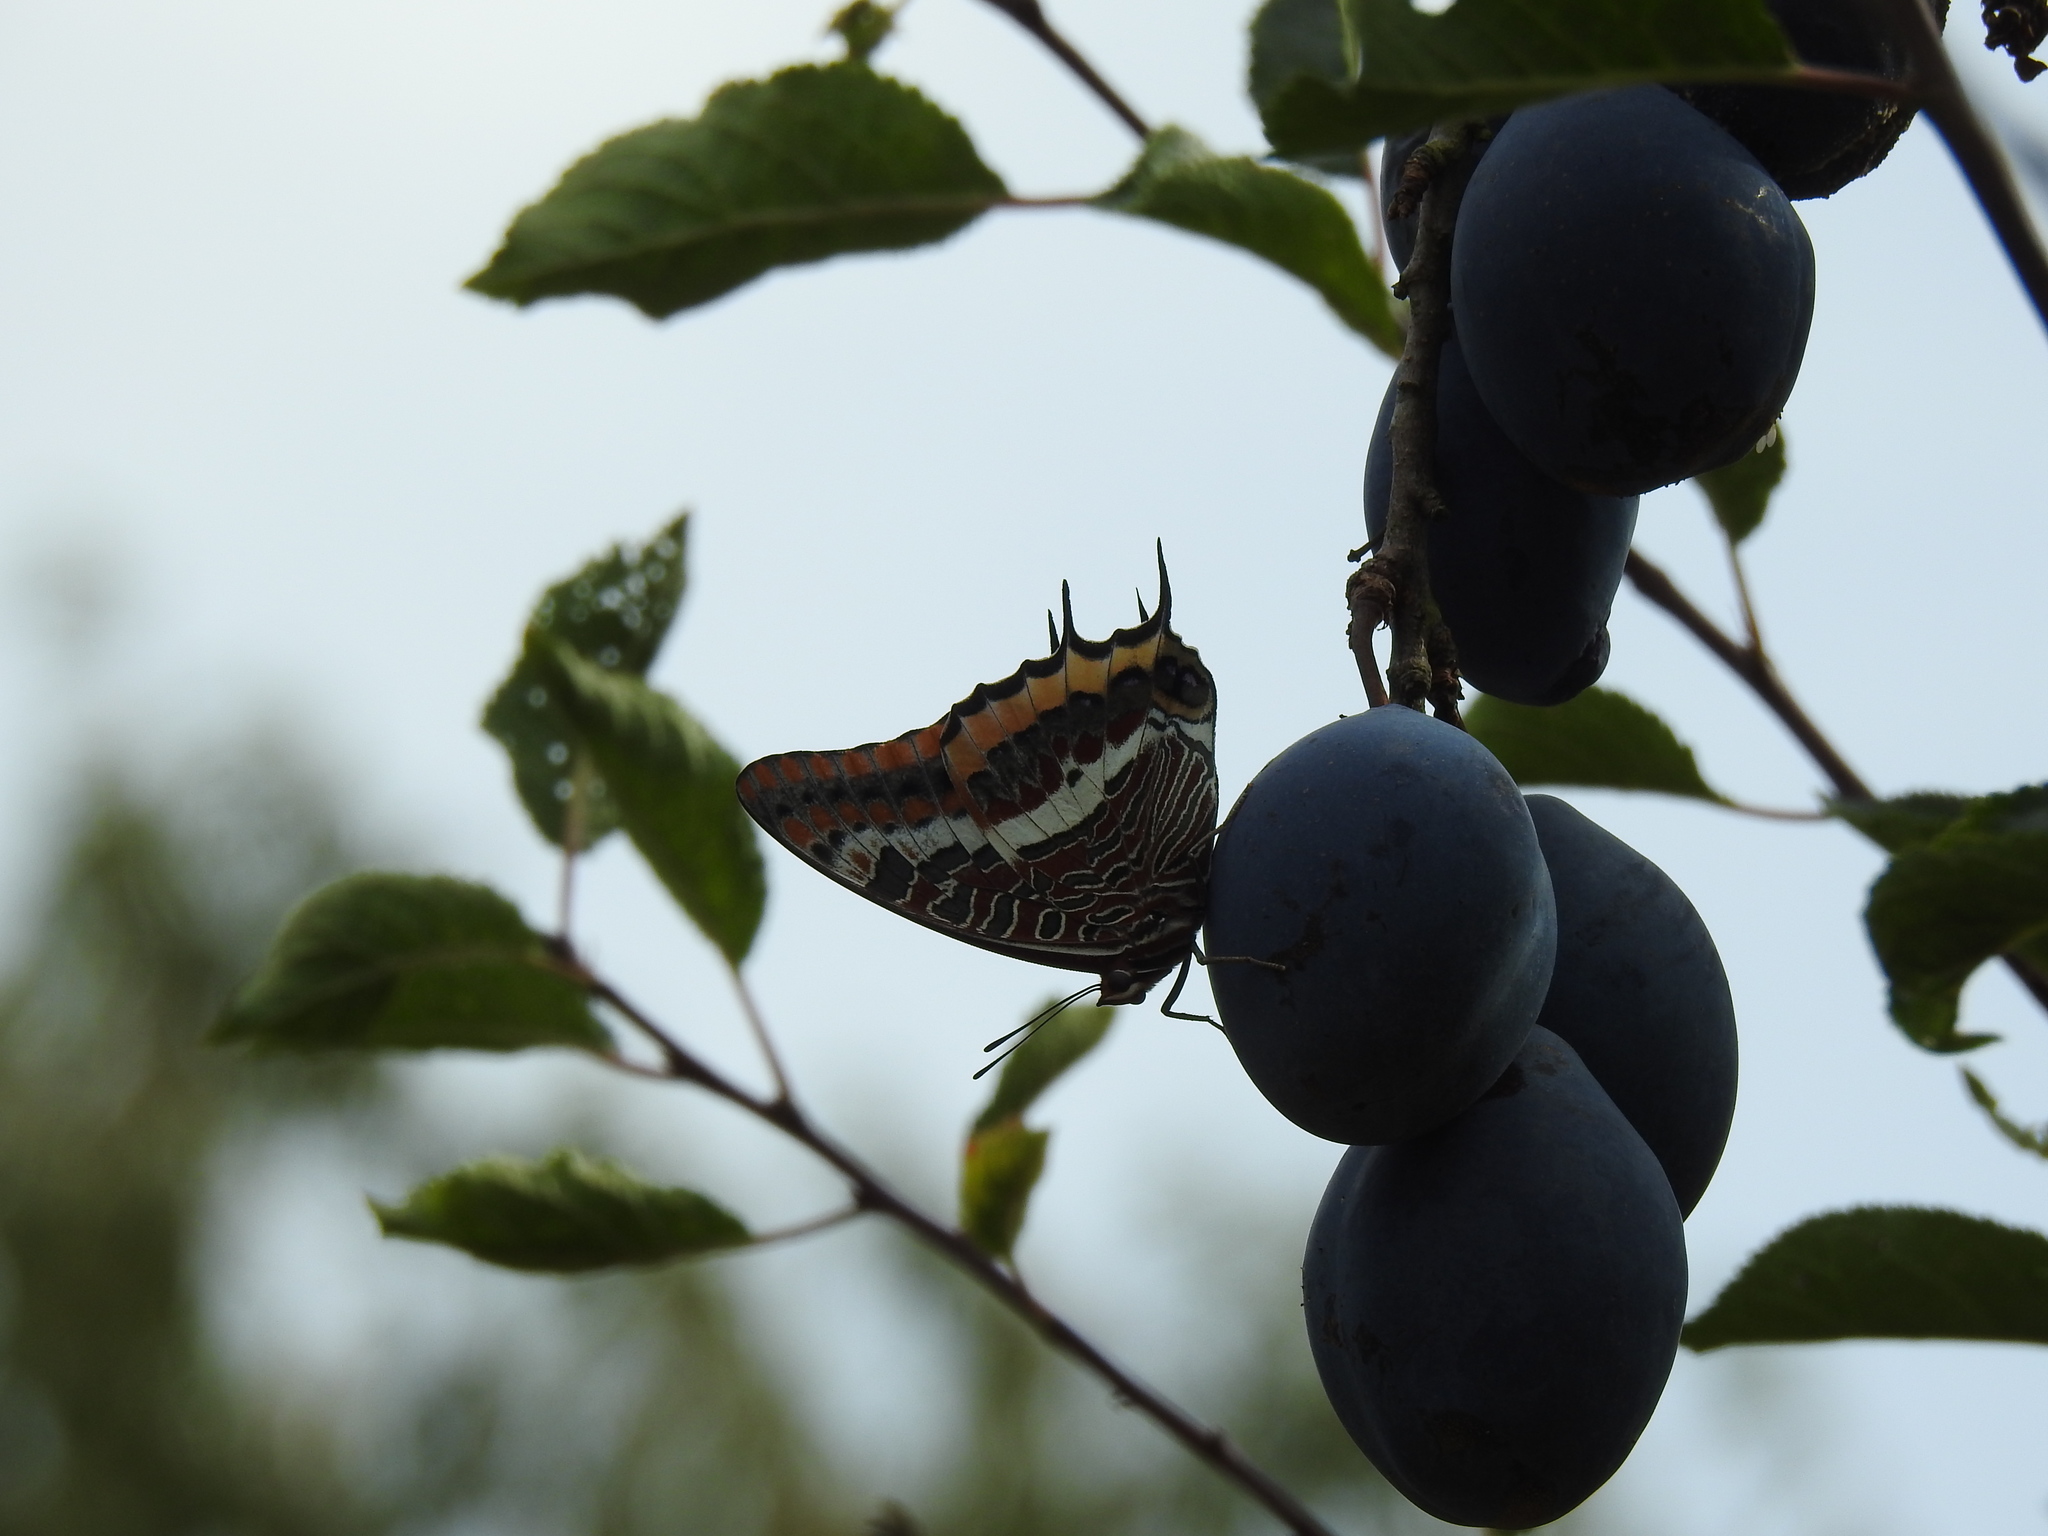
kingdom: Animalia
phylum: Arthropoda
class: Insecta
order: Lepidoptera
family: Nymphalidae
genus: Charaxes
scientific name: Charaxes jasius
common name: Two tailed pasha
